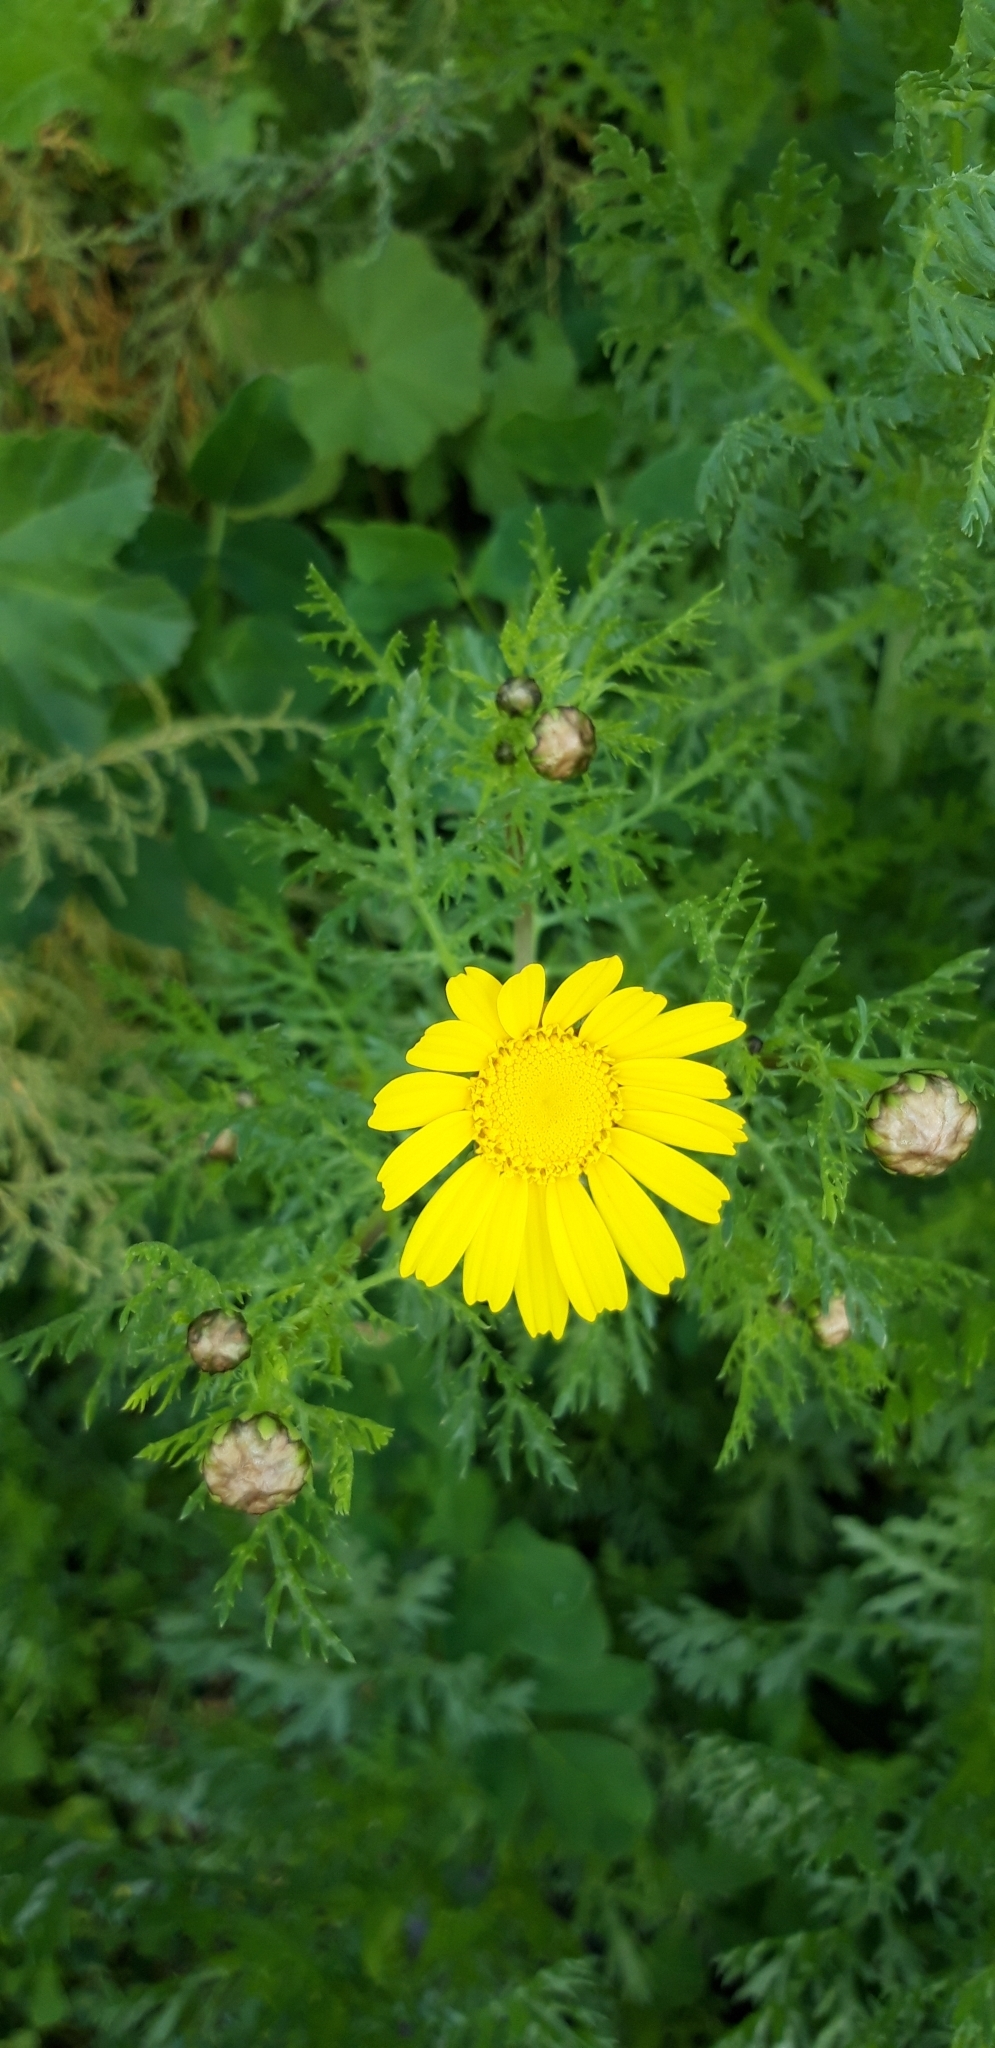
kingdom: Plantae
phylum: Tracheophyta
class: Magnoliopsida
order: Asterales
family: Asteraceae
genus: Glebionis
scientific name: Glebionis coronaria
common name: Crowndaisy
